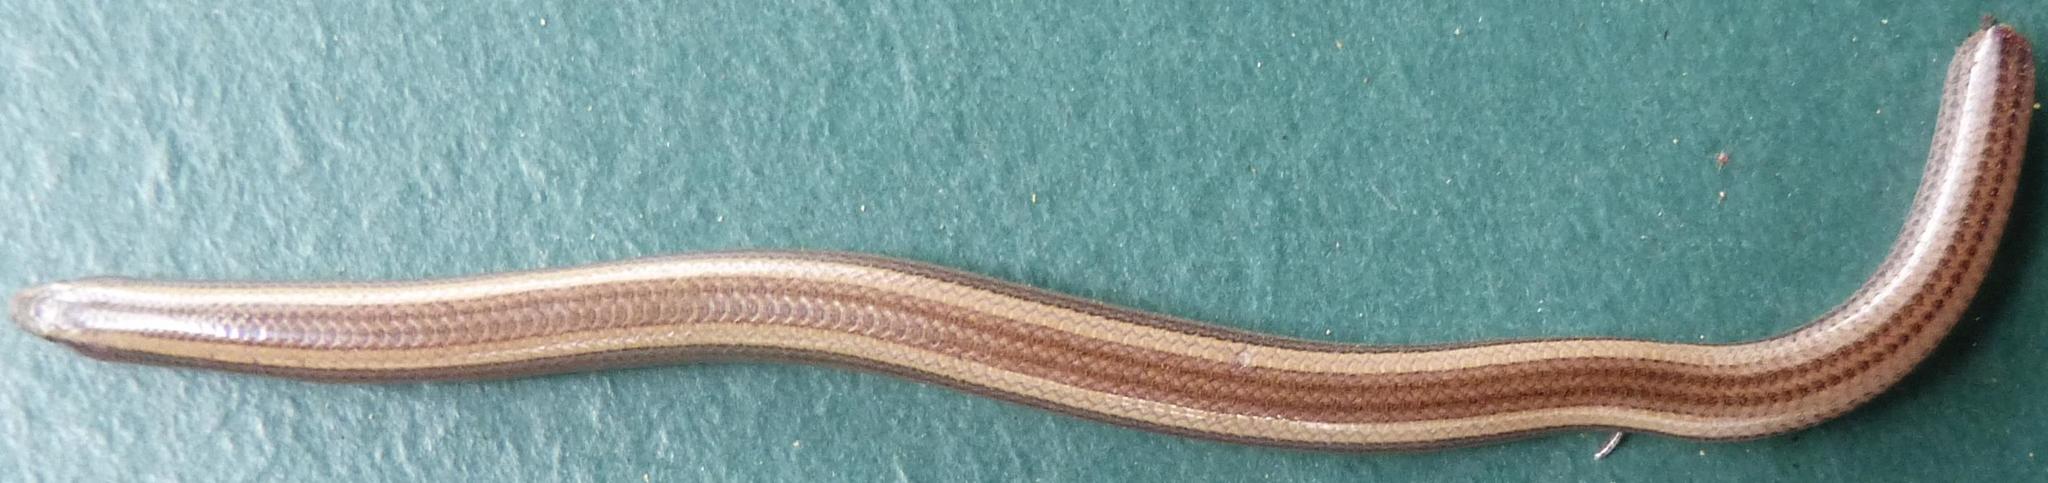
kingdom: Animalia
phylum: Chordata
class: Squamata
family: Scincidae
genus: Scelotes
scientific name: Scelotes bidigittatus
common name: Lowveld dwarf burrowing skink
